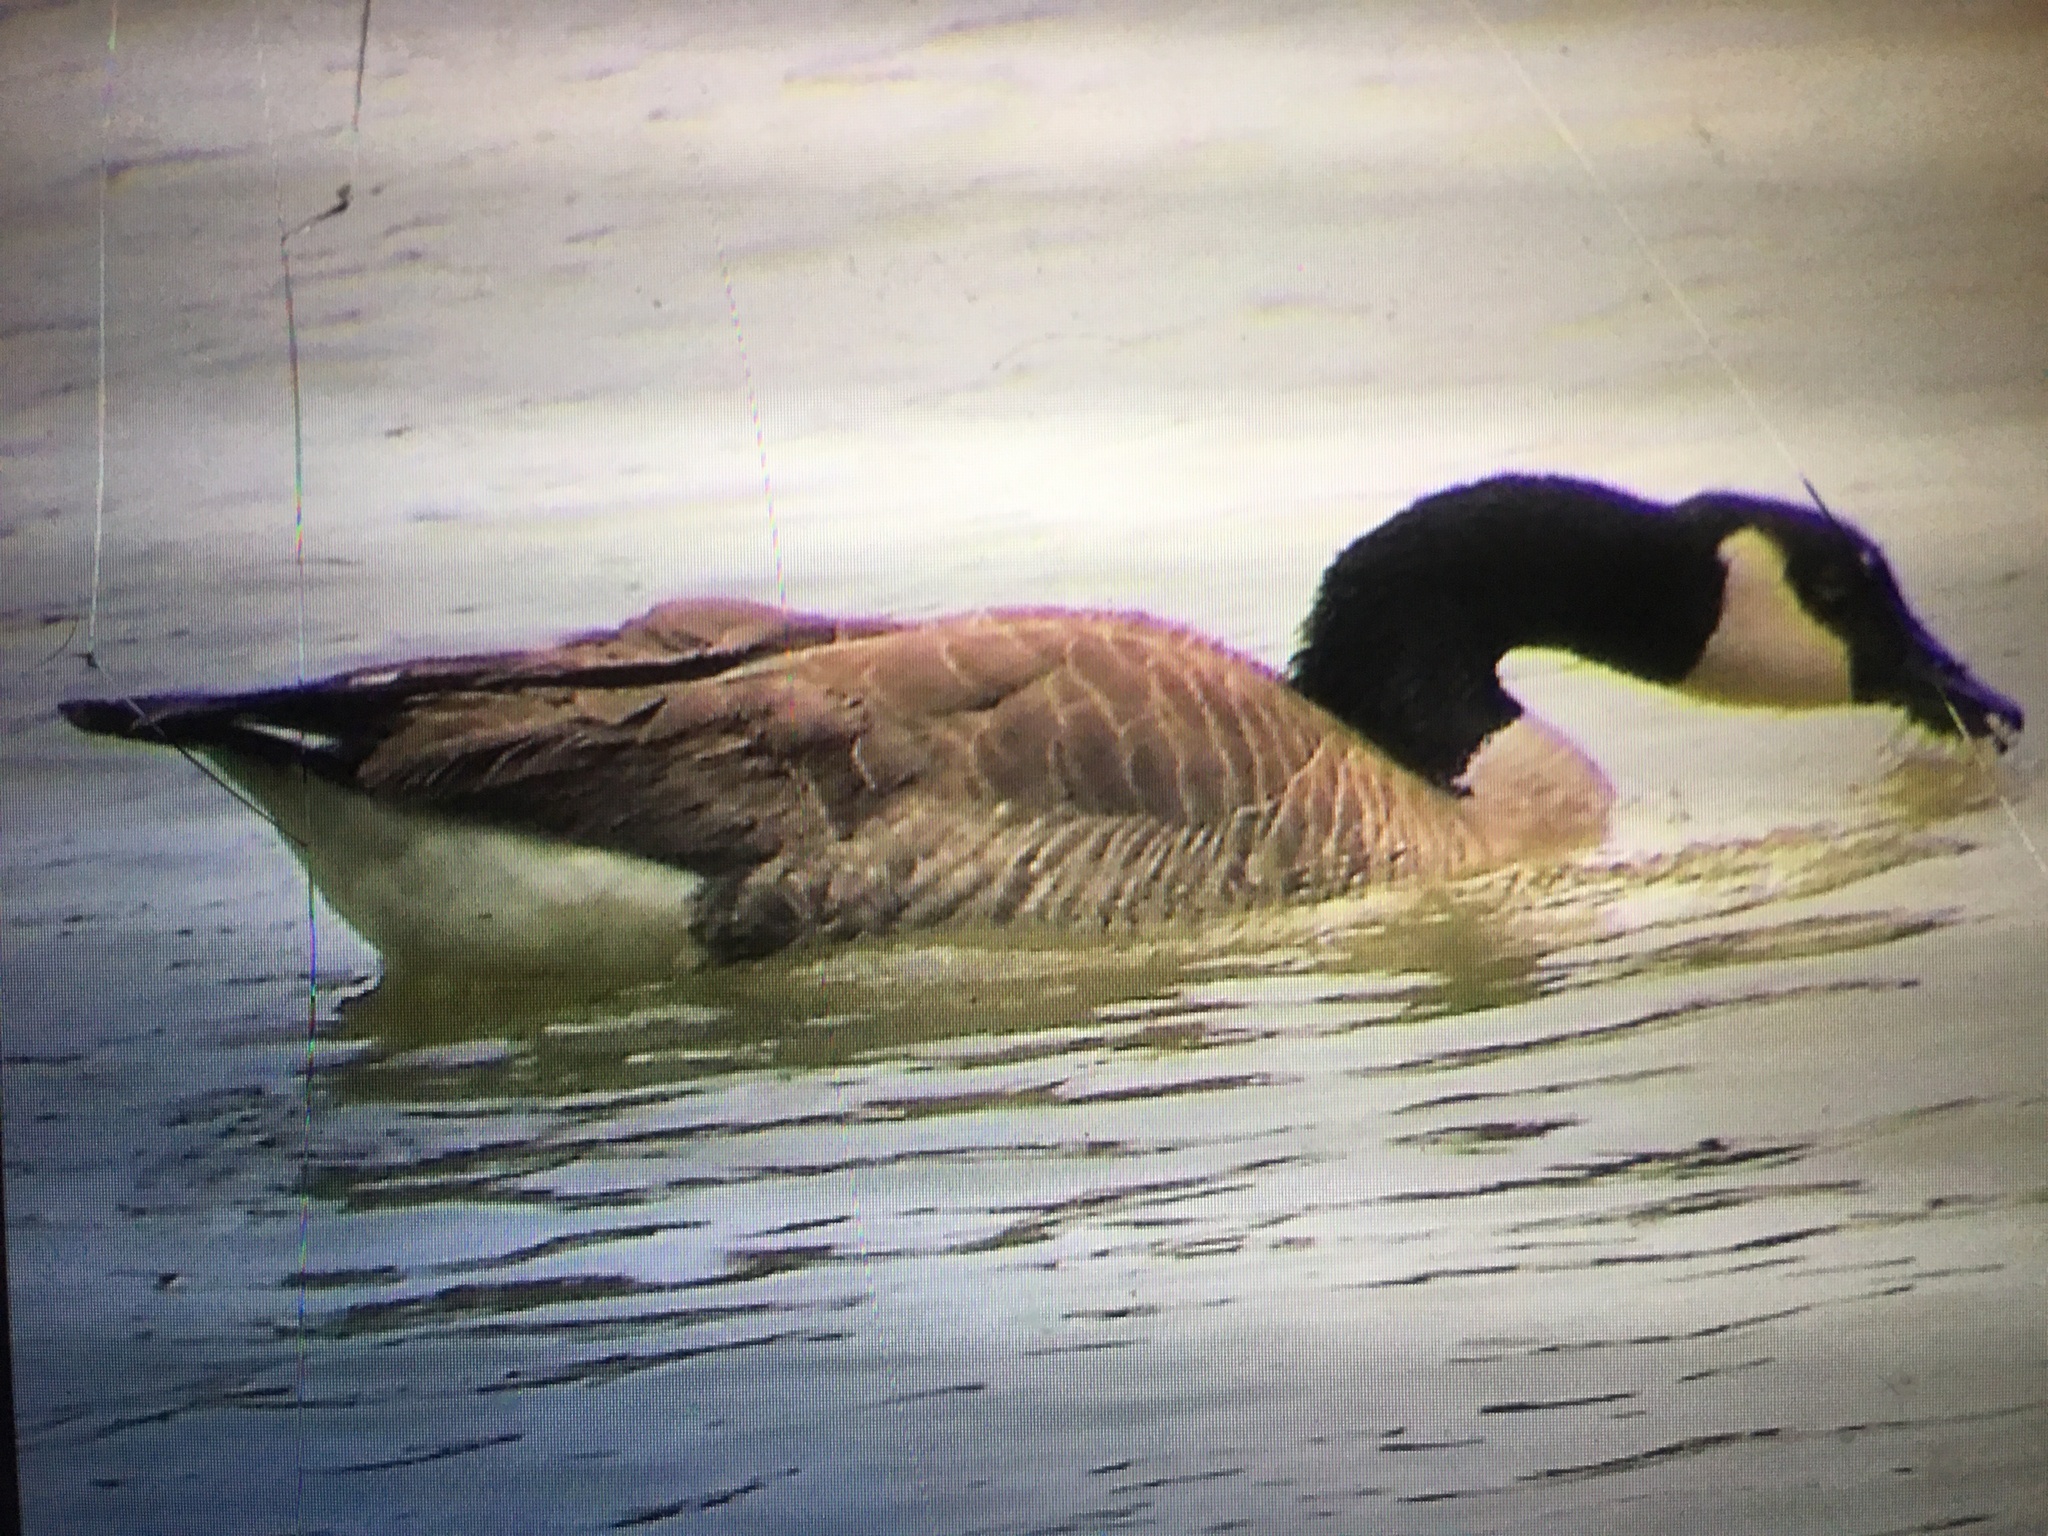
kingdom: Animalia
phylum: Chordata
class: Aves
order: Anseriformes
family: Anatidae
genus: Branta
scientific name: Branta canadensis
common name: Canada goose
